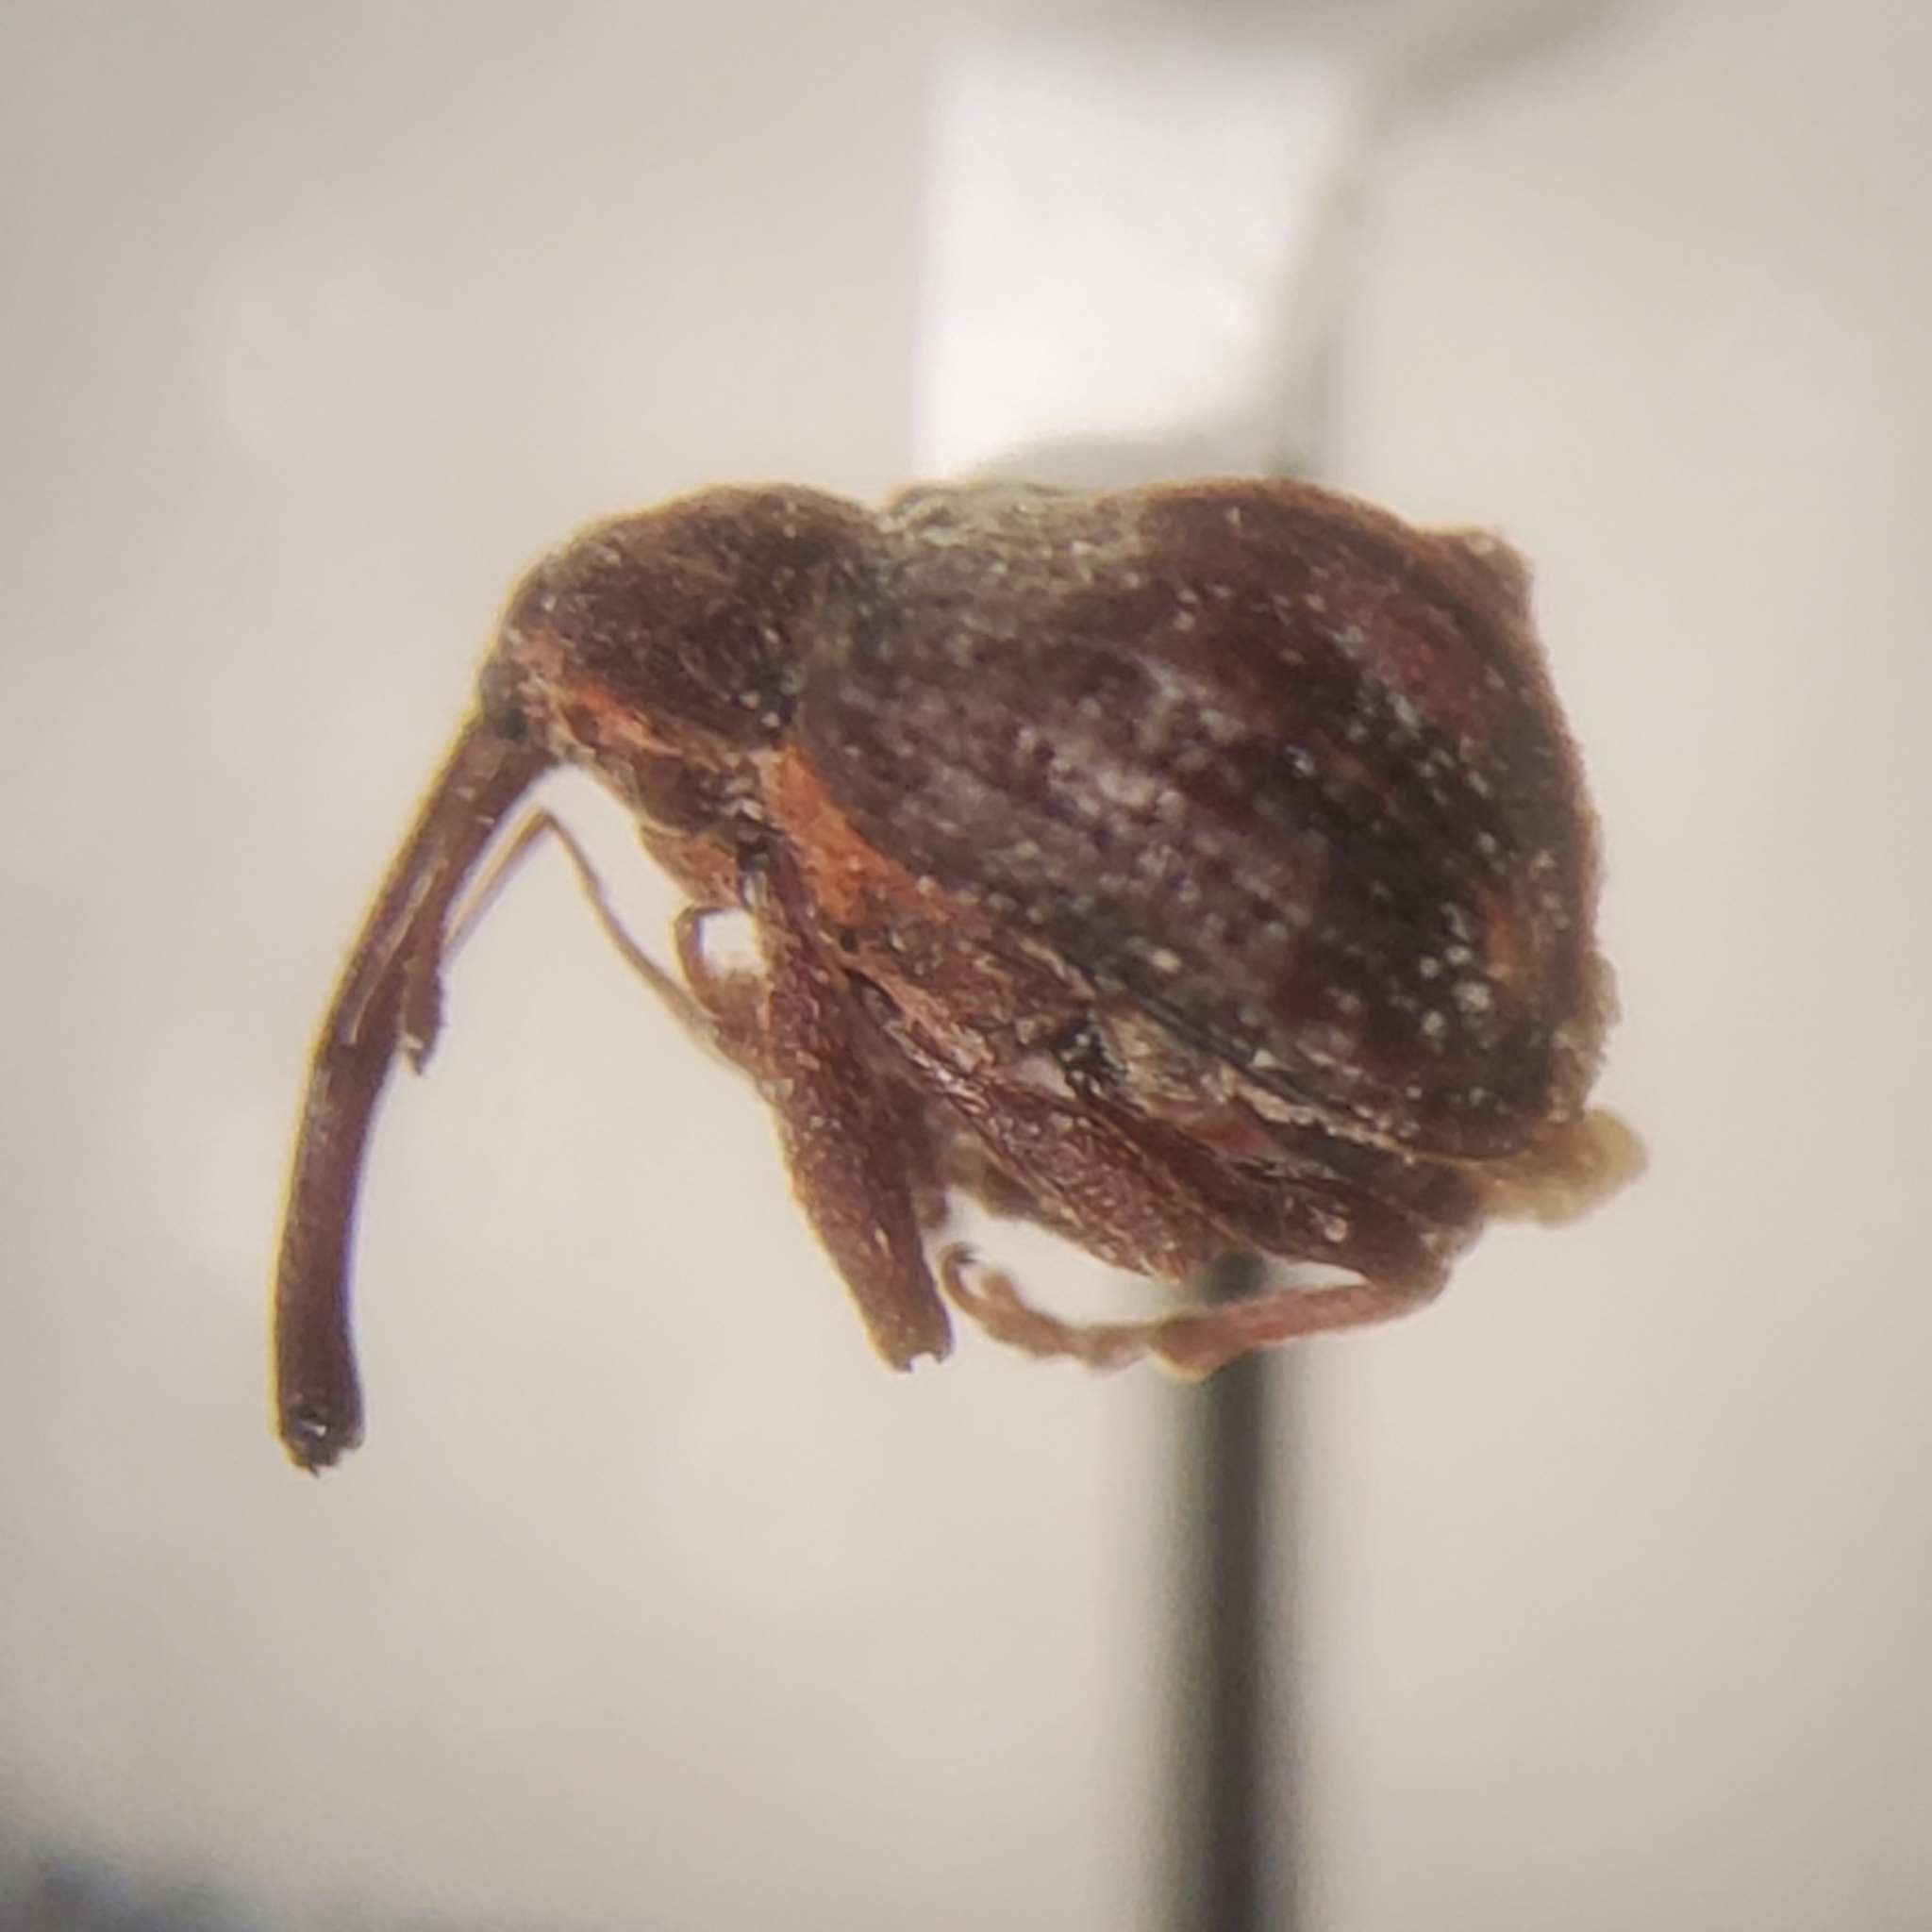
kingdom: Animalia
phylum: Arthropoda
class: Insecta
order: Coleoptera
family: Curculionidae
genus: Anthonomus
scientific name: Anthonomus quadrigibbus
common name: Apple curculio
